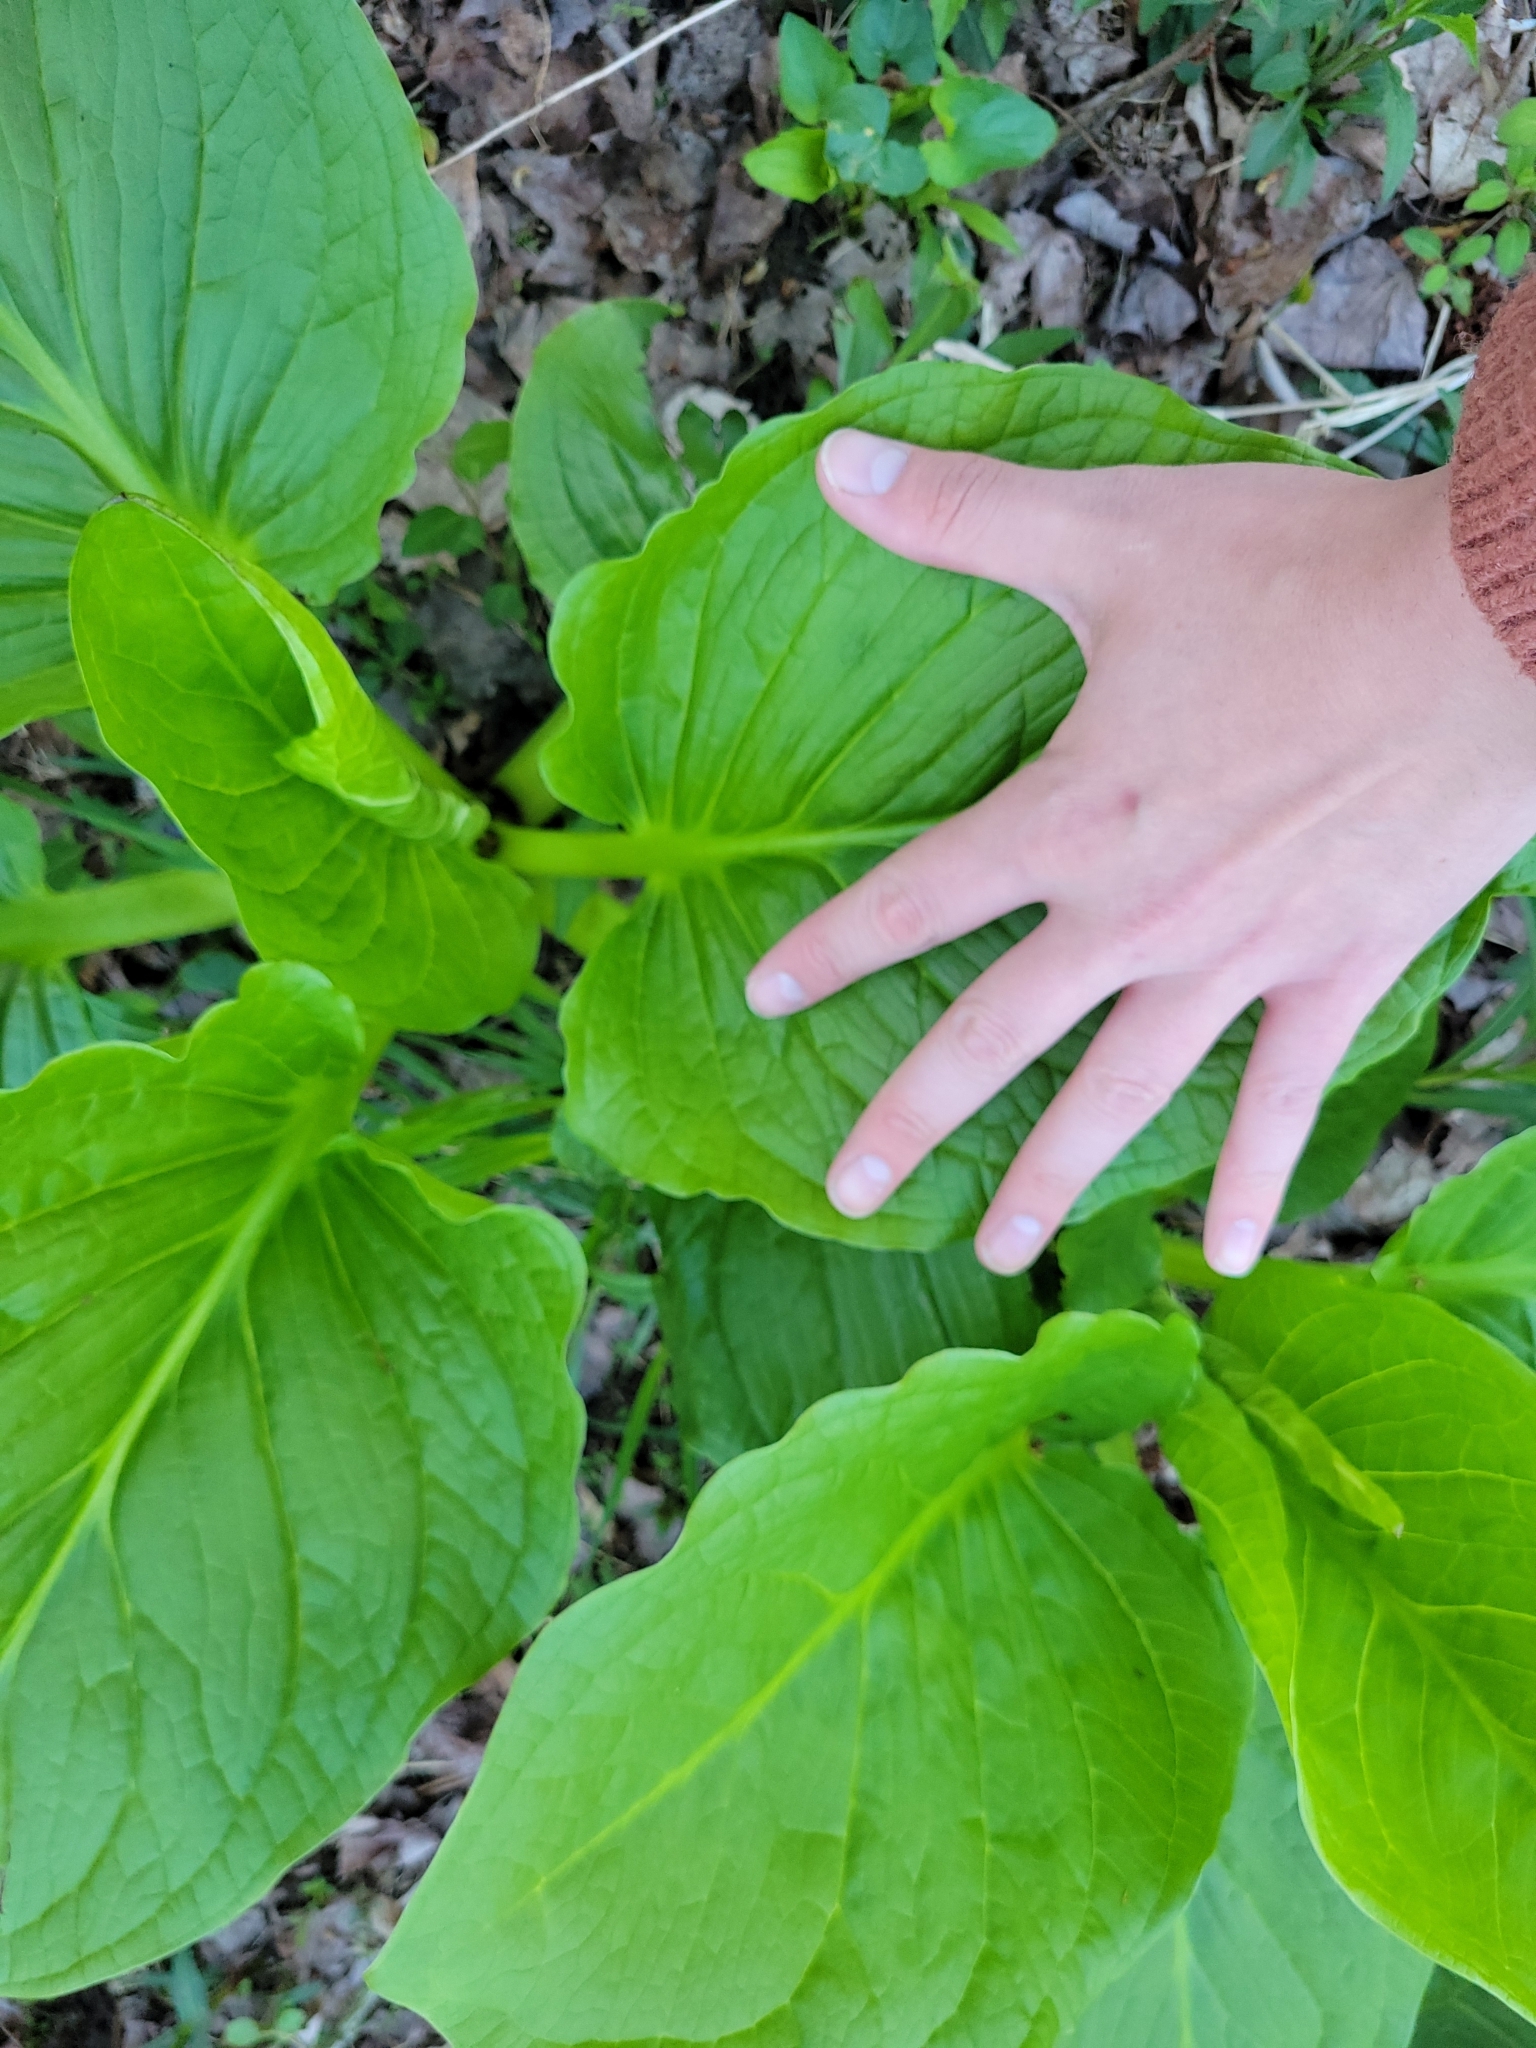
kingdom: Plantae
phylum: Tracheophyta
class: Liliopsida
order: Alismatales
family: Araceae
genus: Symplocarpus
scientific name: Symplocarpus foetidus
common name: Eastern skunk cabbage
